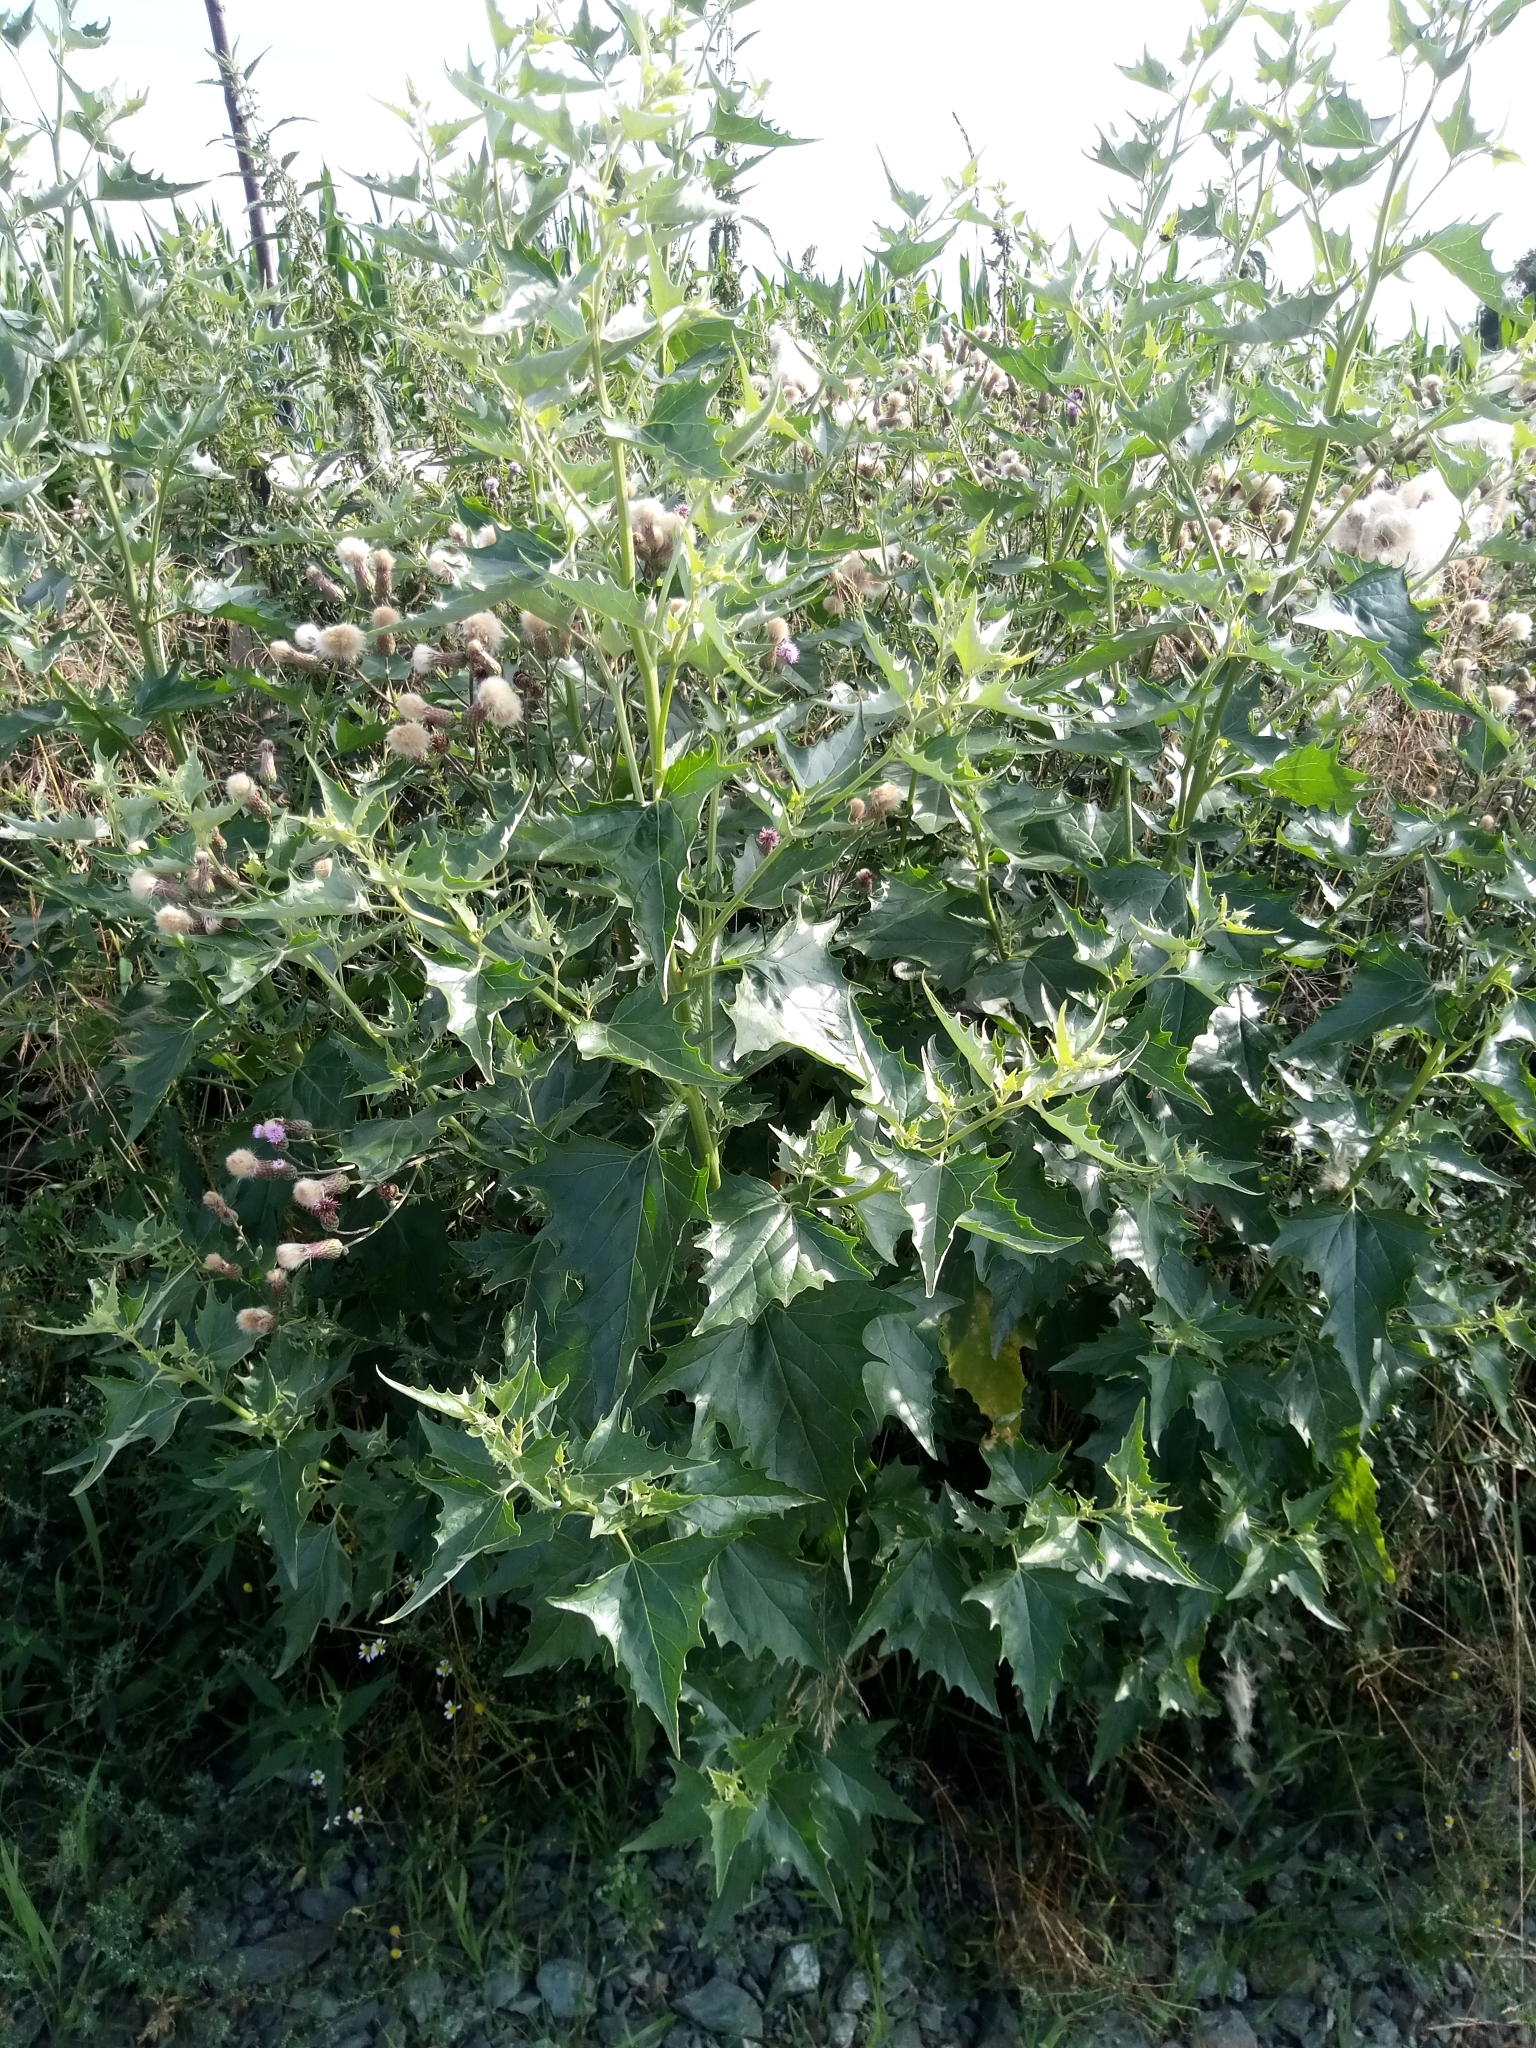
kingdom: Plantae
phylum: Tracheophyta
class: Magnoliopsida
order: Caryophyllales
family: Amaranthaceae
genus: Atriplex
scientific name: Atriplex sagittata
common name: Purple orache
